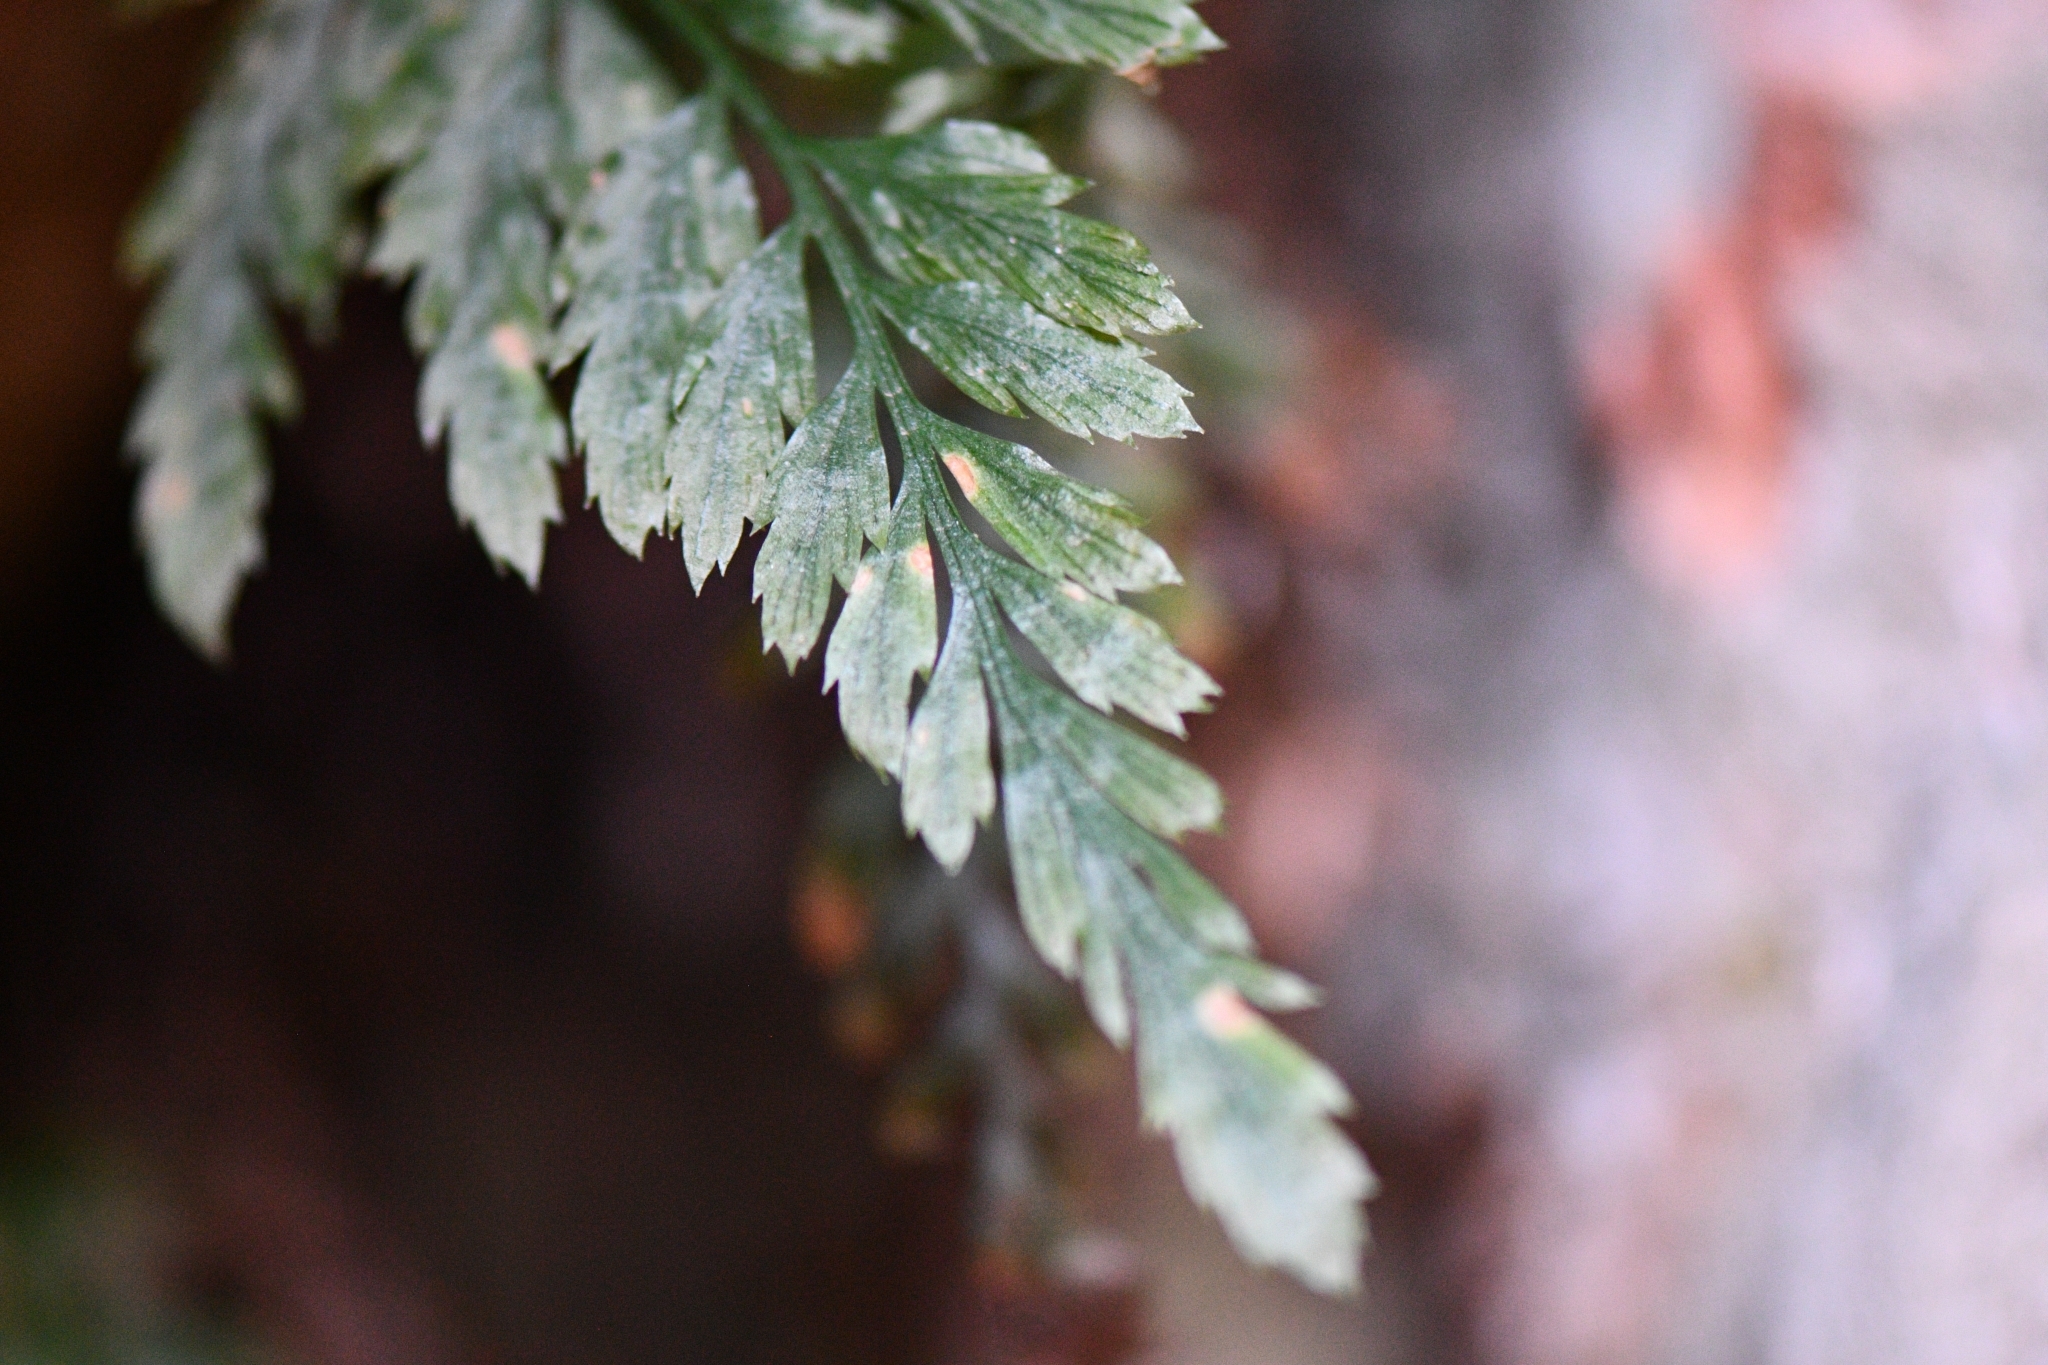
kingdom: Plantae
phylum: Tracheophyta
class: Polypodiopsida
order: Polypodiales
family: Aspleniaceae
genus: Asplenium
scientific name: Asplenium adiantum-nigrum
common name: Black spleenwort
